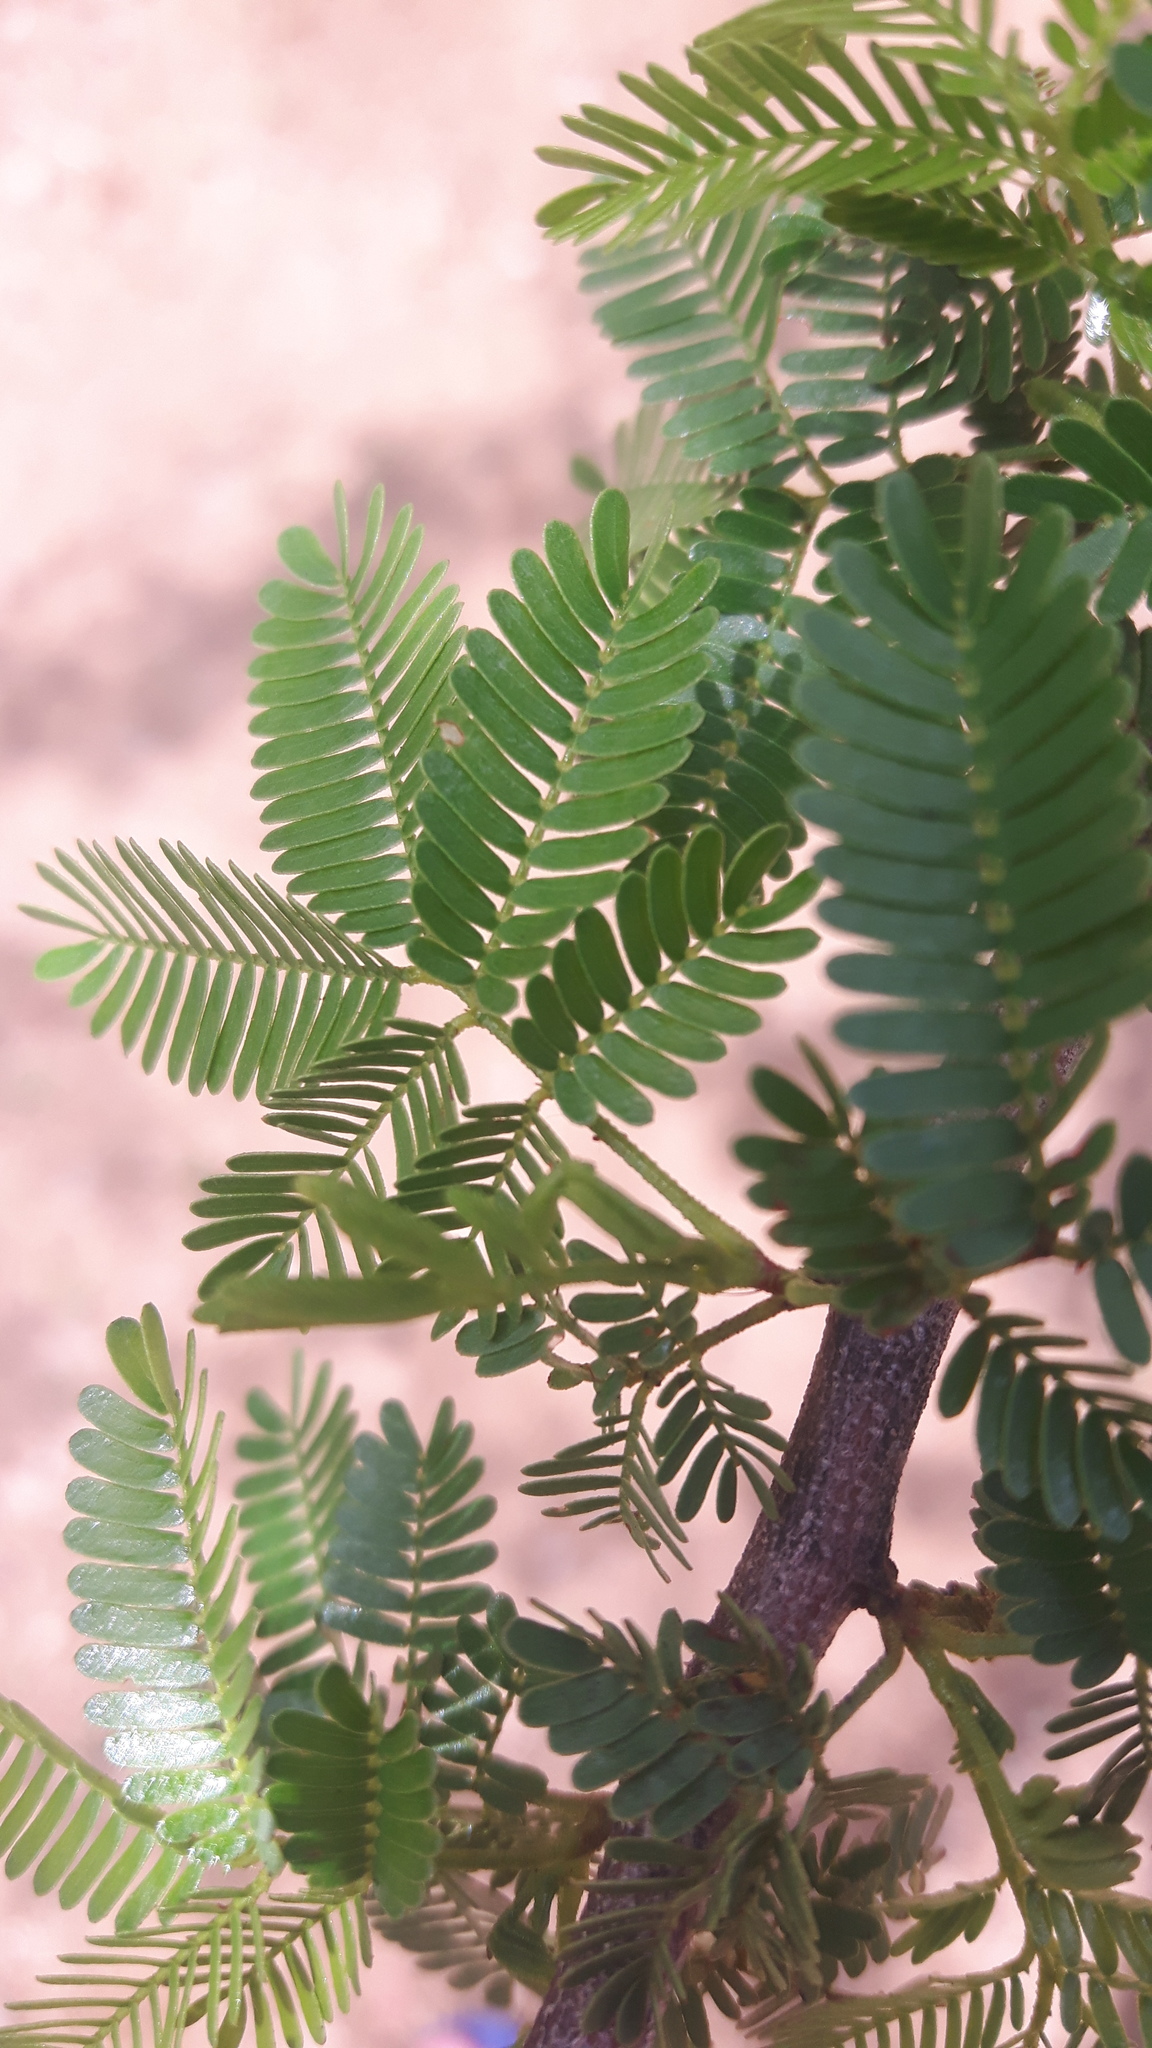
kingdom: Plantae
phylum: Tracheophyta
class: Magnoliopsida
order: Fabales
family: Fabaceae
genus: Mimosa
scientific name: Mimosa tenuiflora
